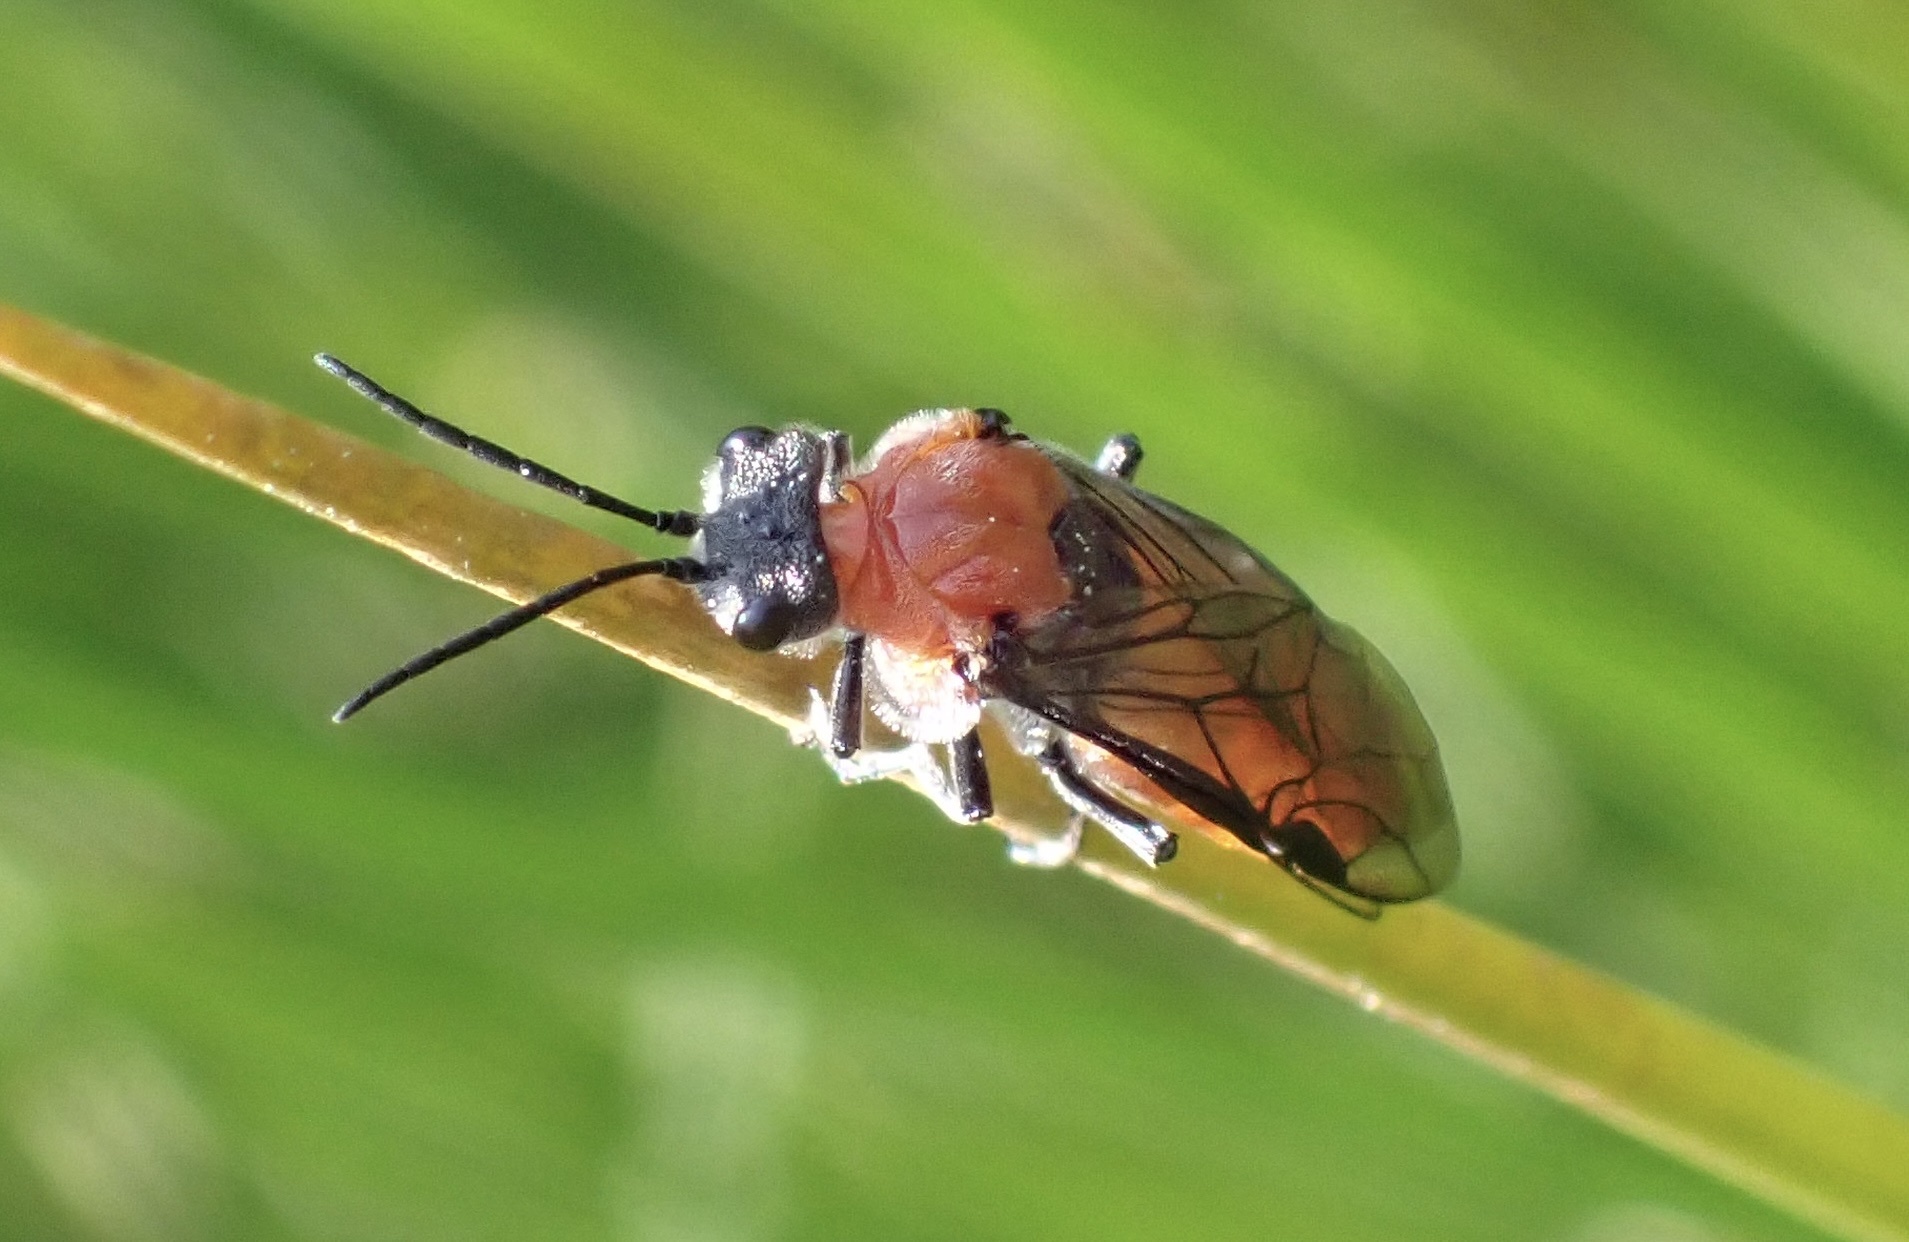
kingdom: Animalia
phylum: Arthropoda
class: Insecta
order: Hymenoptera
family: Tenthredinidae
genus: Dolerus
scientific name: Dolerus madidus
